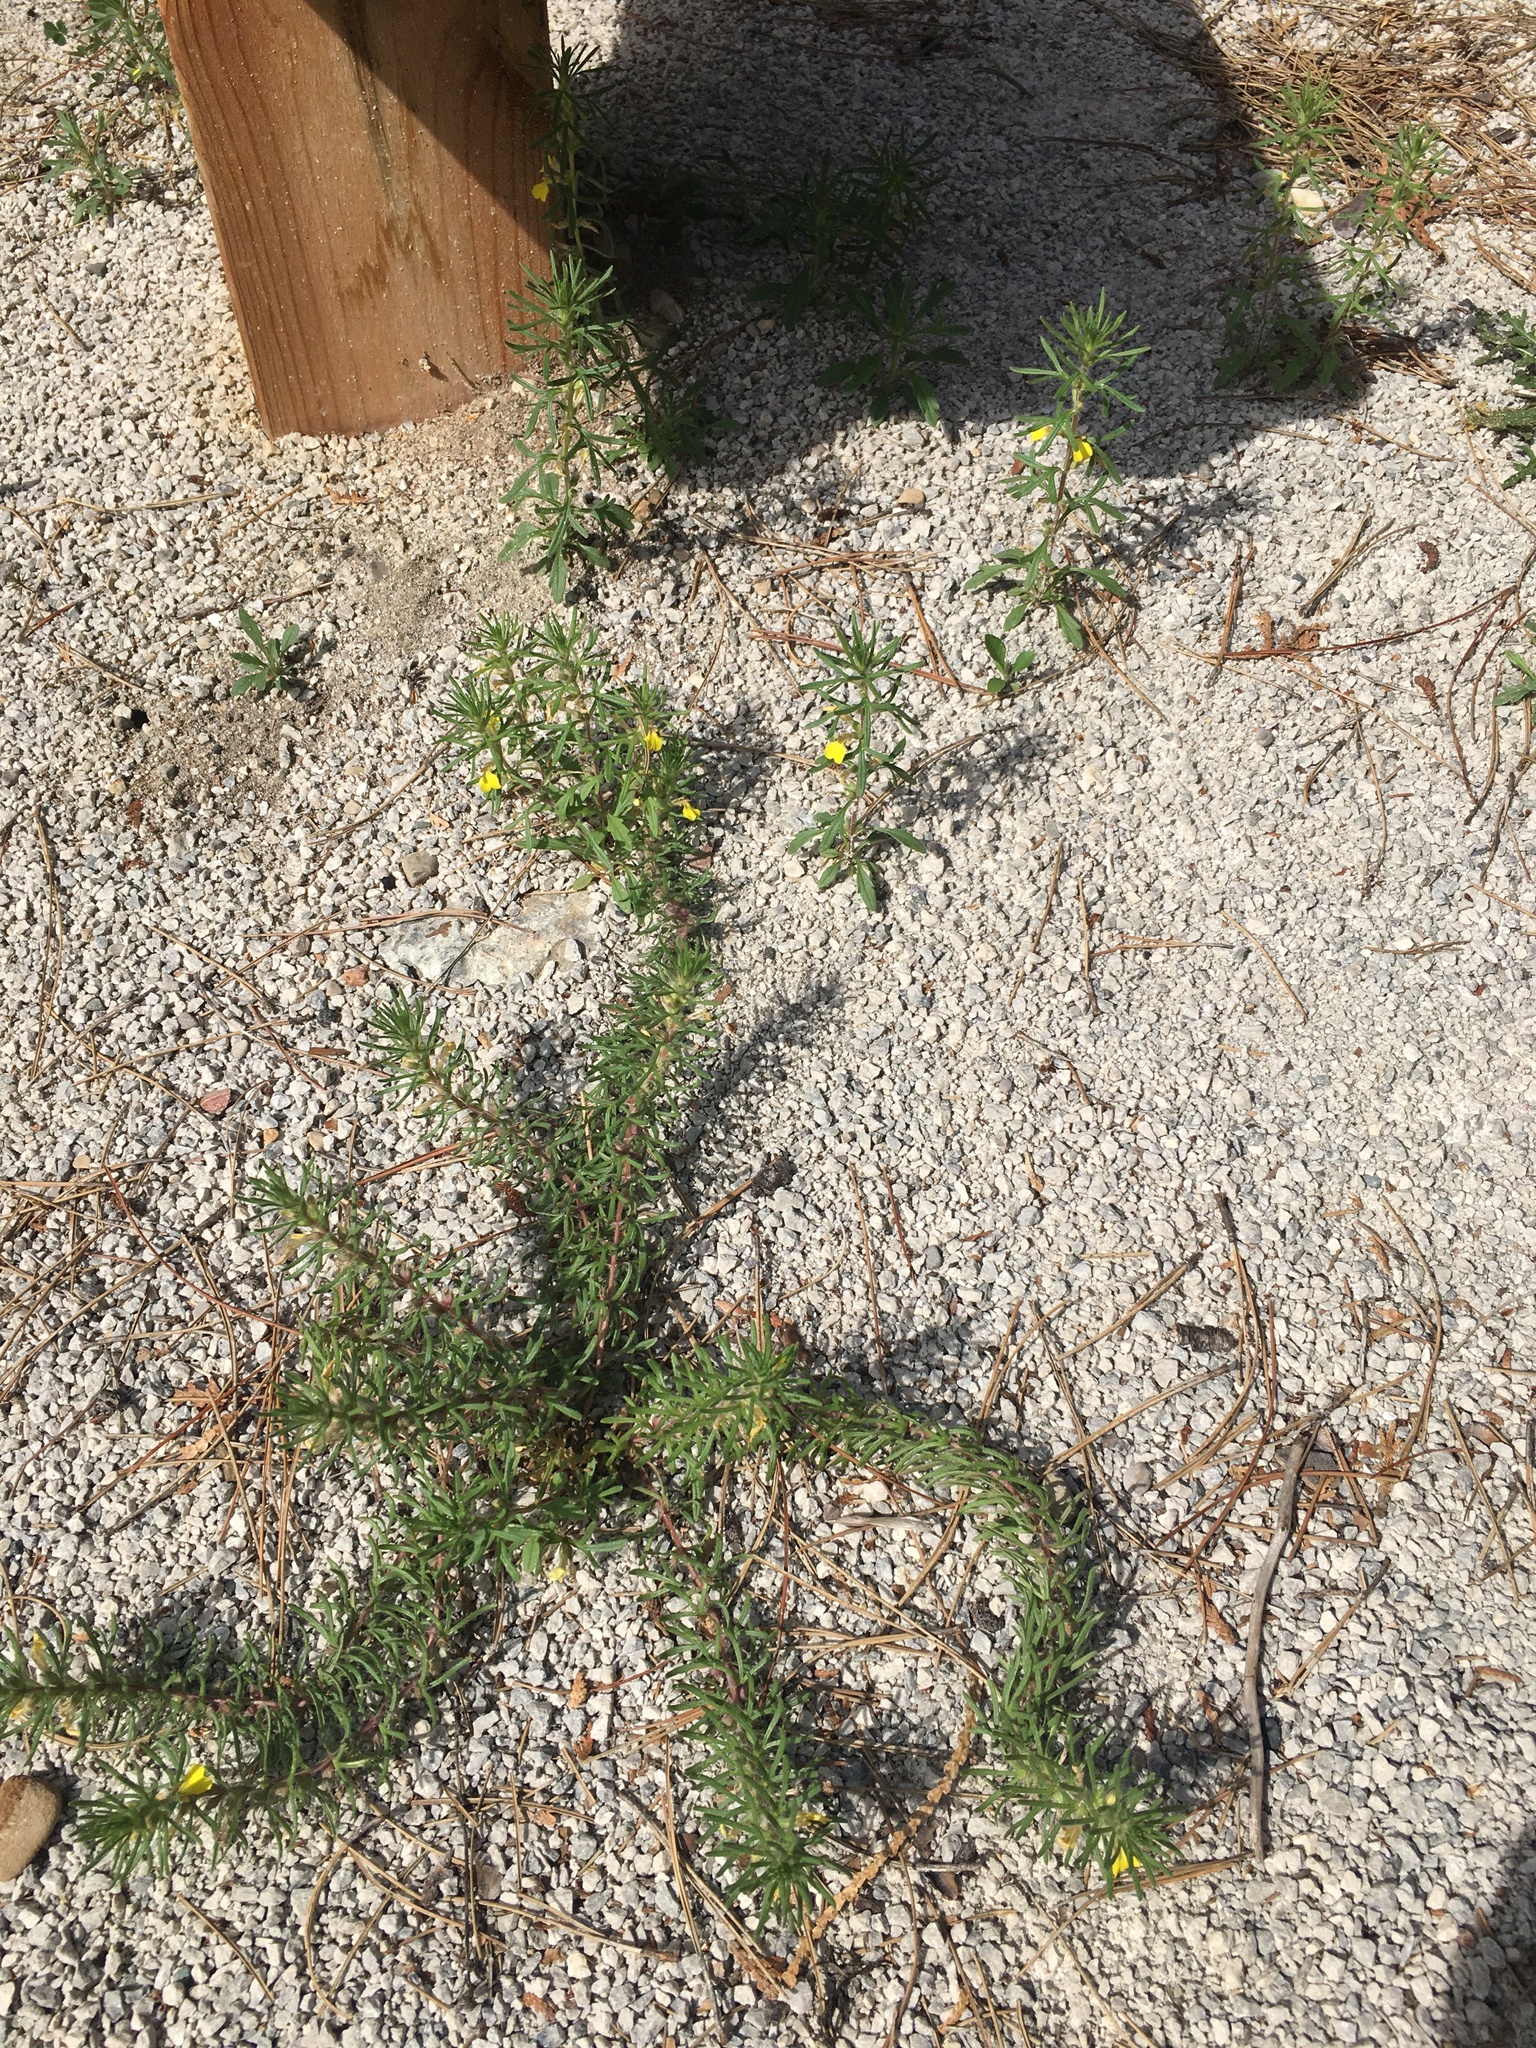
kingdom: Plantae
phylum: Tracheophyta
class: Magnoliopsida
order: Lamiales
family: Lamiaceae
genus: Ajuga
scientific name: Ajuga chamaepitys
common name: Ground-pine
